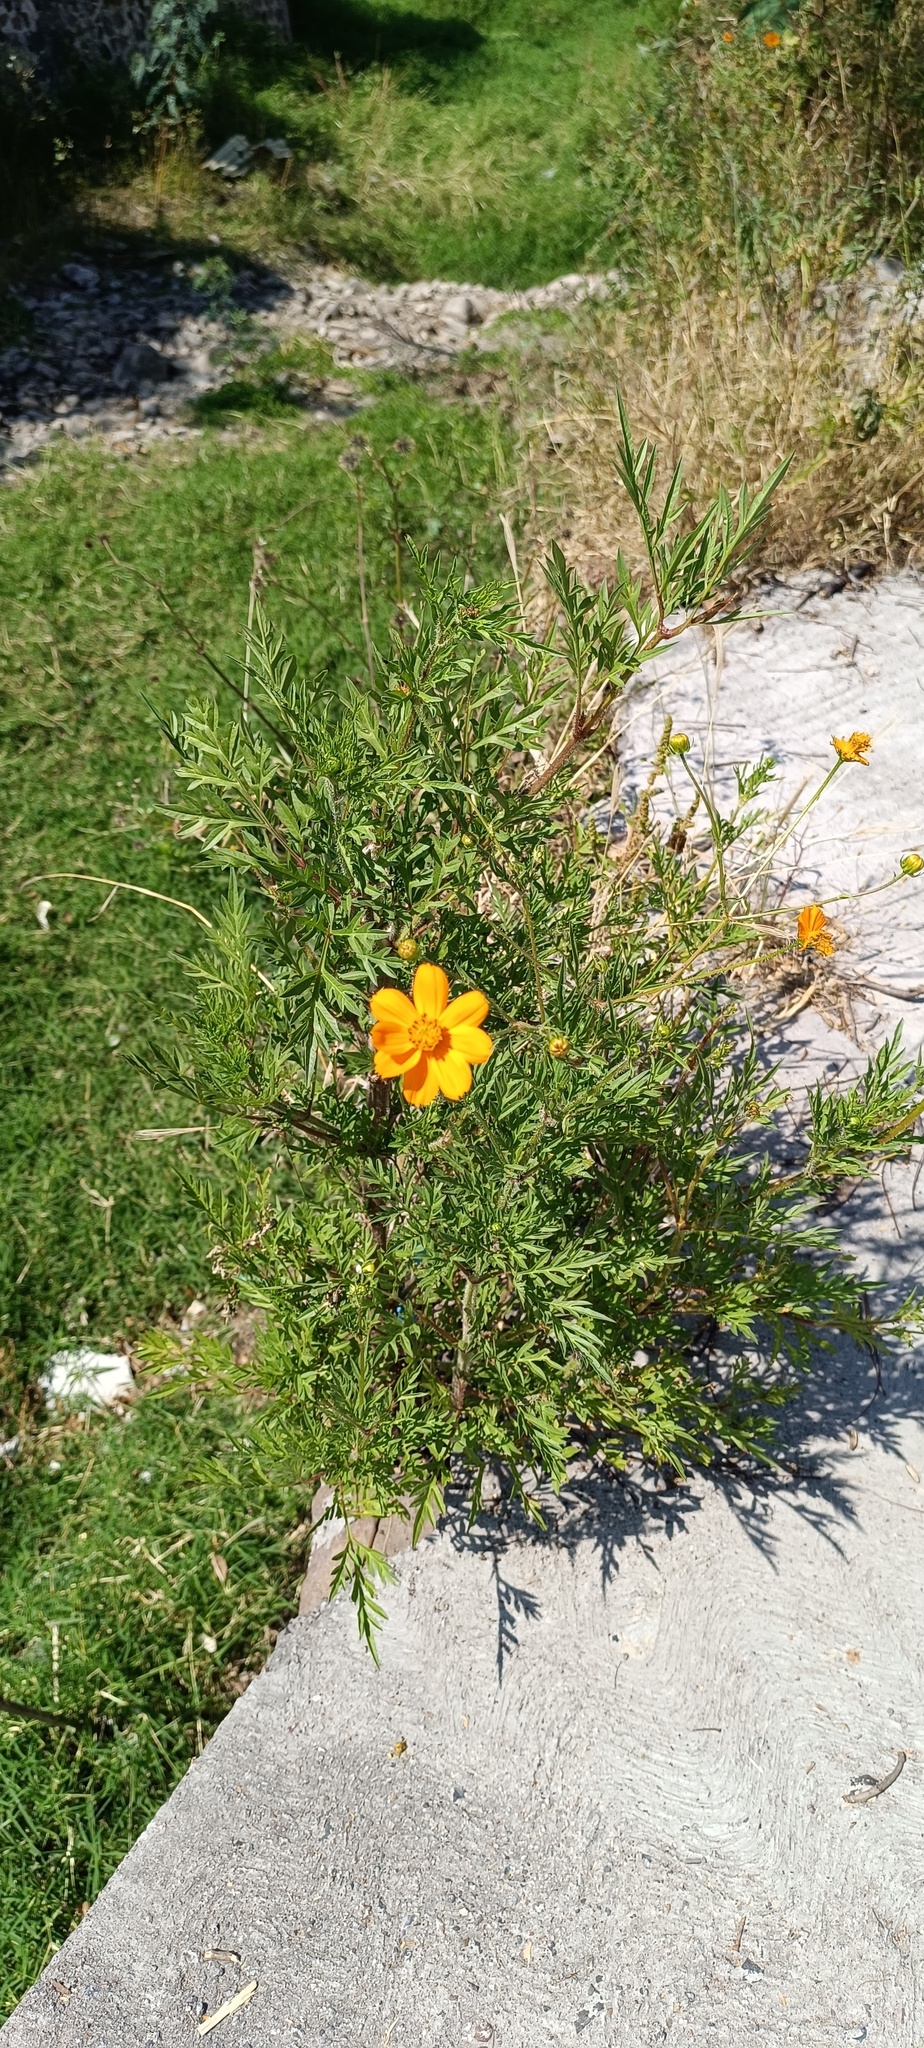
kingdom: Plantae
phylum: Tracheophyta
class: Magnoliopsida
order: Asterales
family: Asteraceae
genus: Cosmos
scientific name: Cosmos sulphureus
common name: Sulphur cosmos
